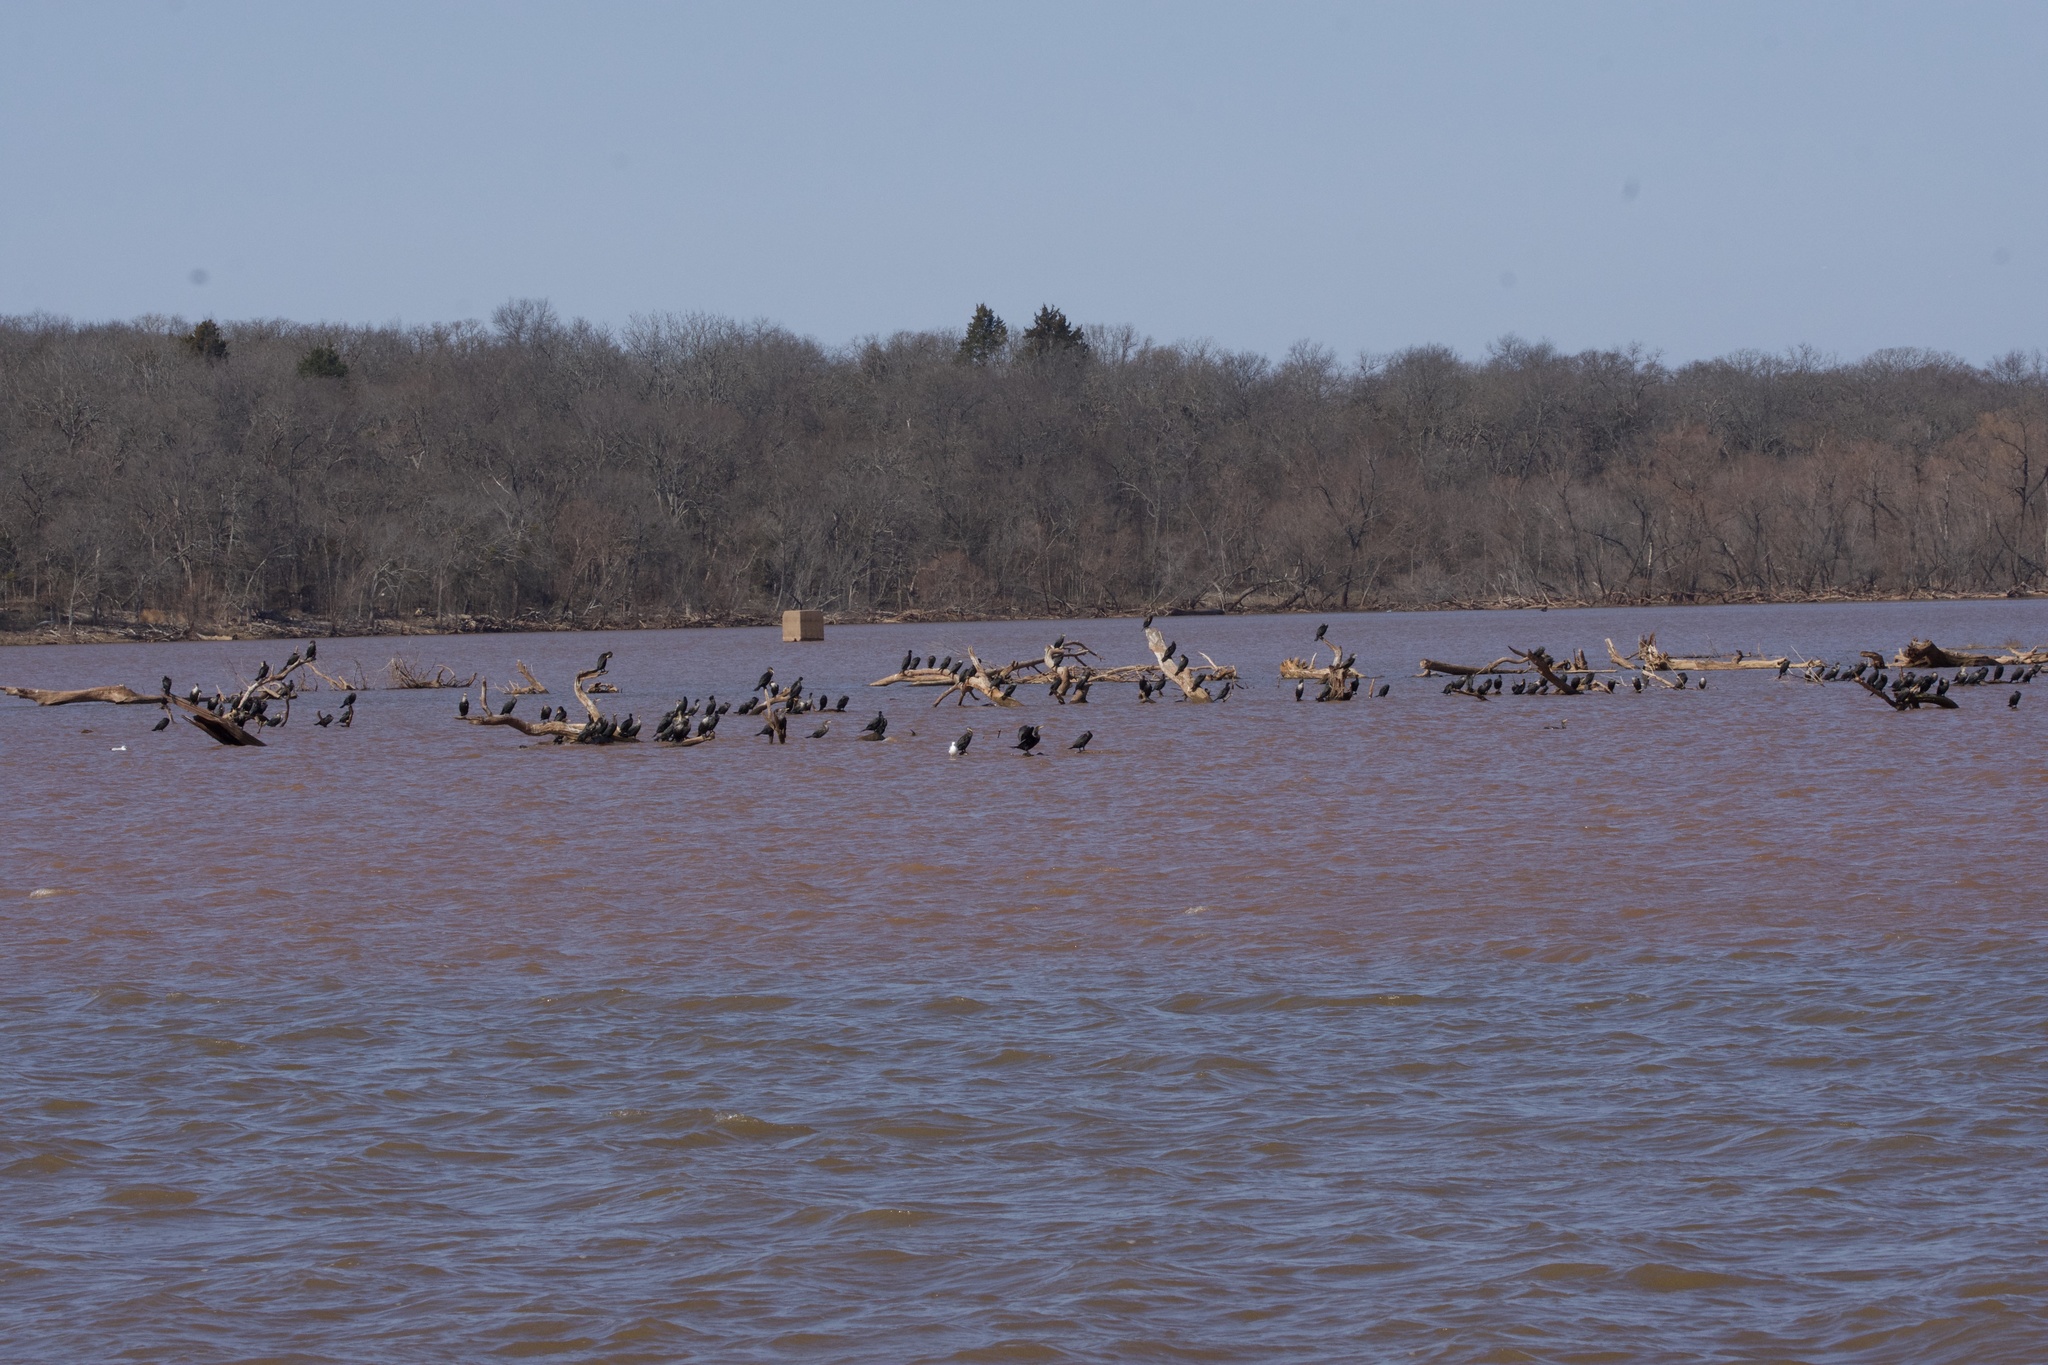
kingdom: Animalia
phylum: Chordata
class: Aves
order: Suliformes
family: Phalacrocoracidae
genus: Phalacrocorax
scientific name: Phalacrocorax auritus
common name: Double-crested cormorant
